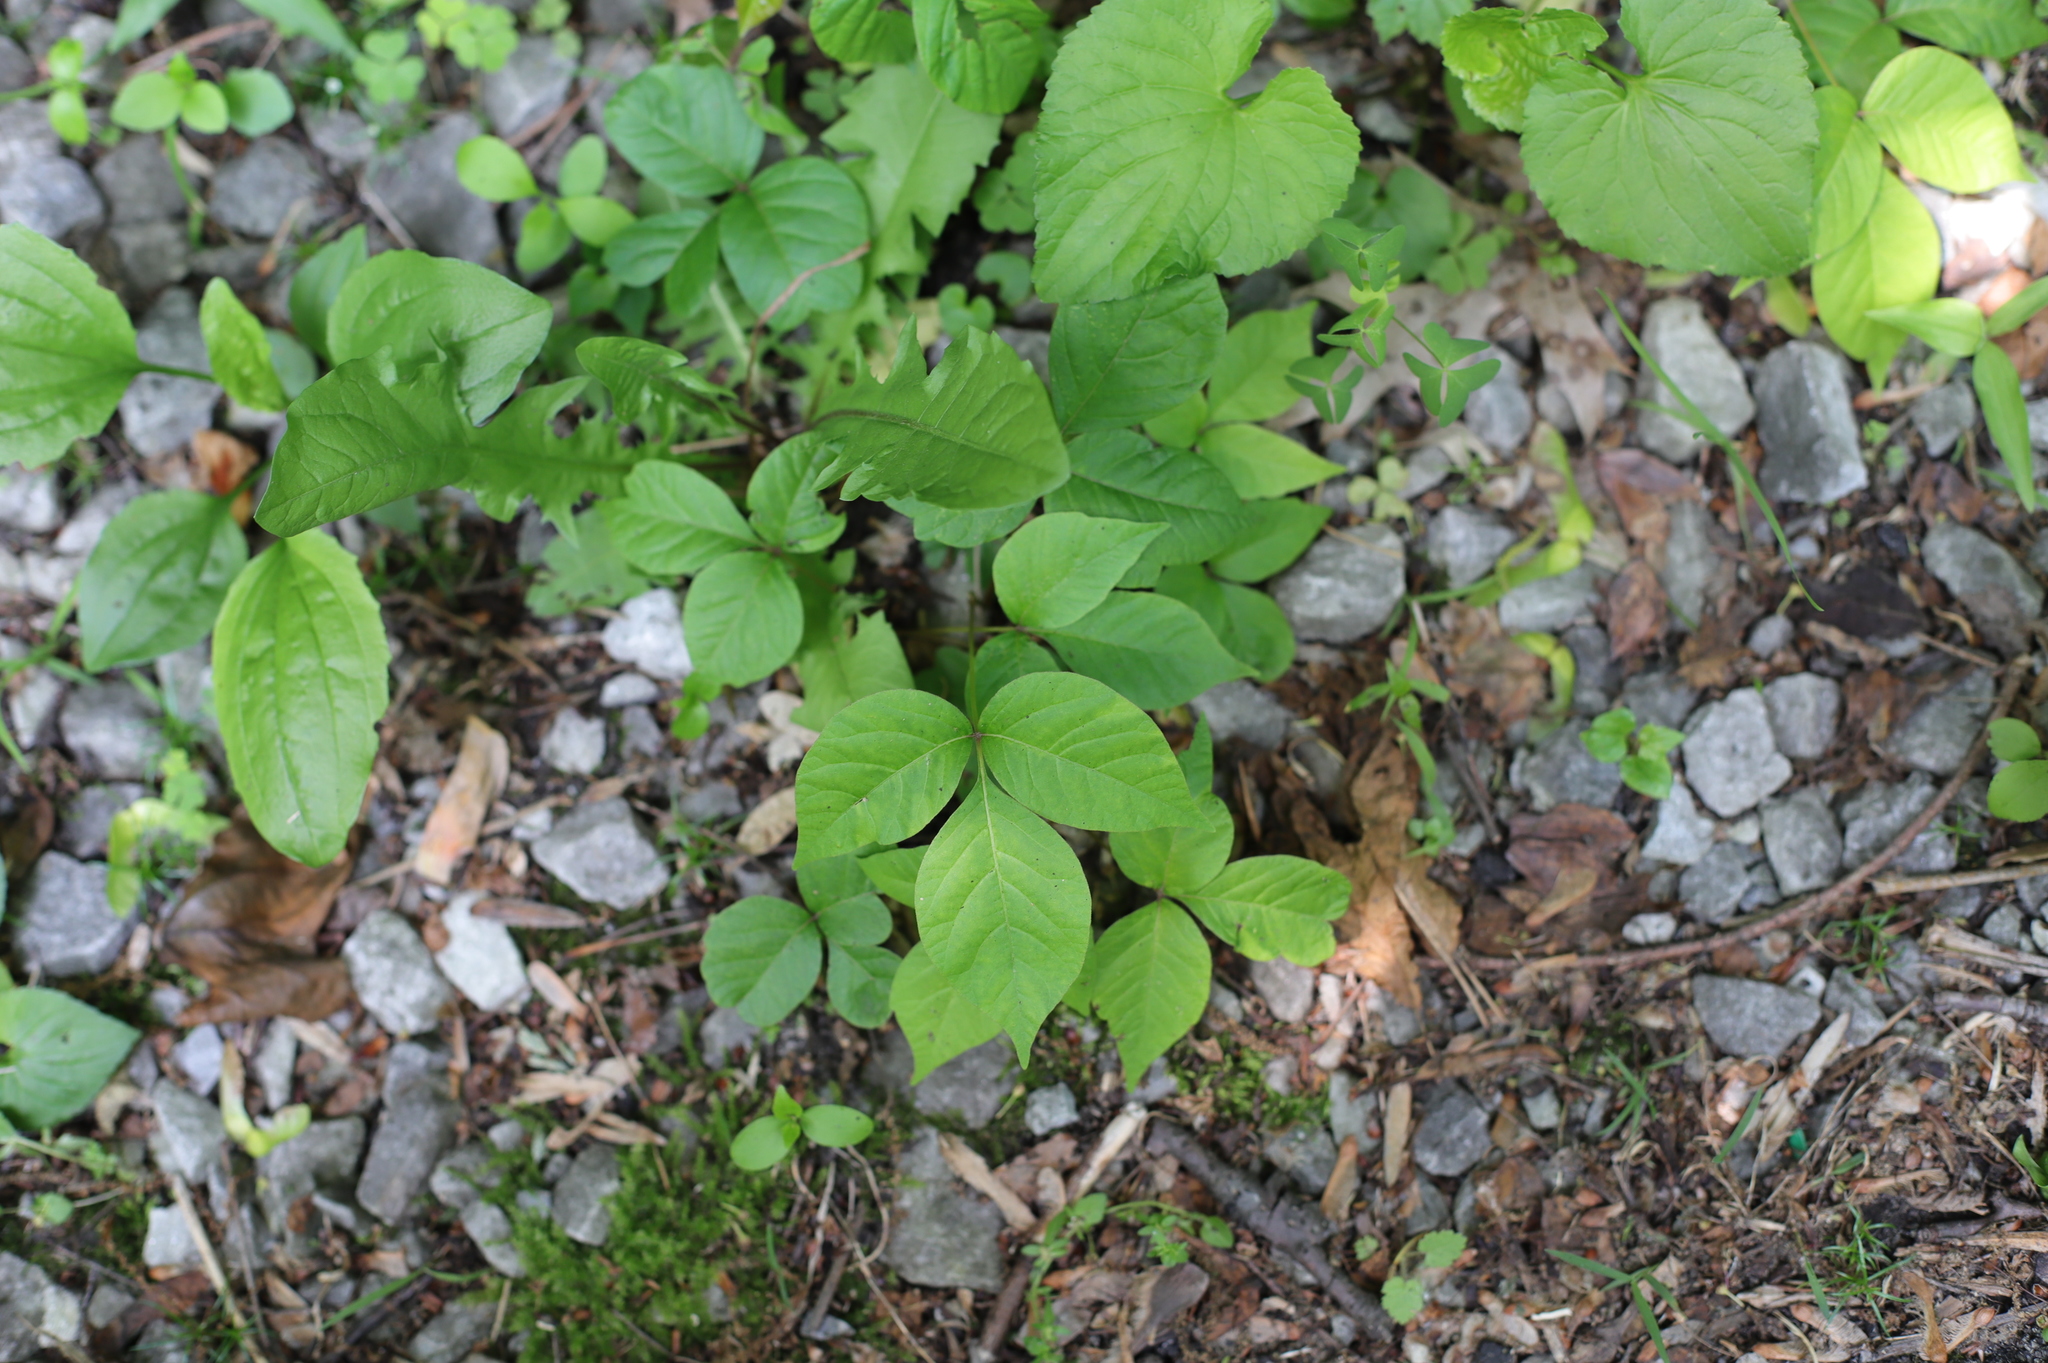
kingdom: Plantae
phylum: Tracheophyta
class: Magnoliopsida
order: Sapindales
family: Anacardiaceae
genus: Toxicodendron
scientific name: Toxicodendron radicans
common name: Poison ivy
